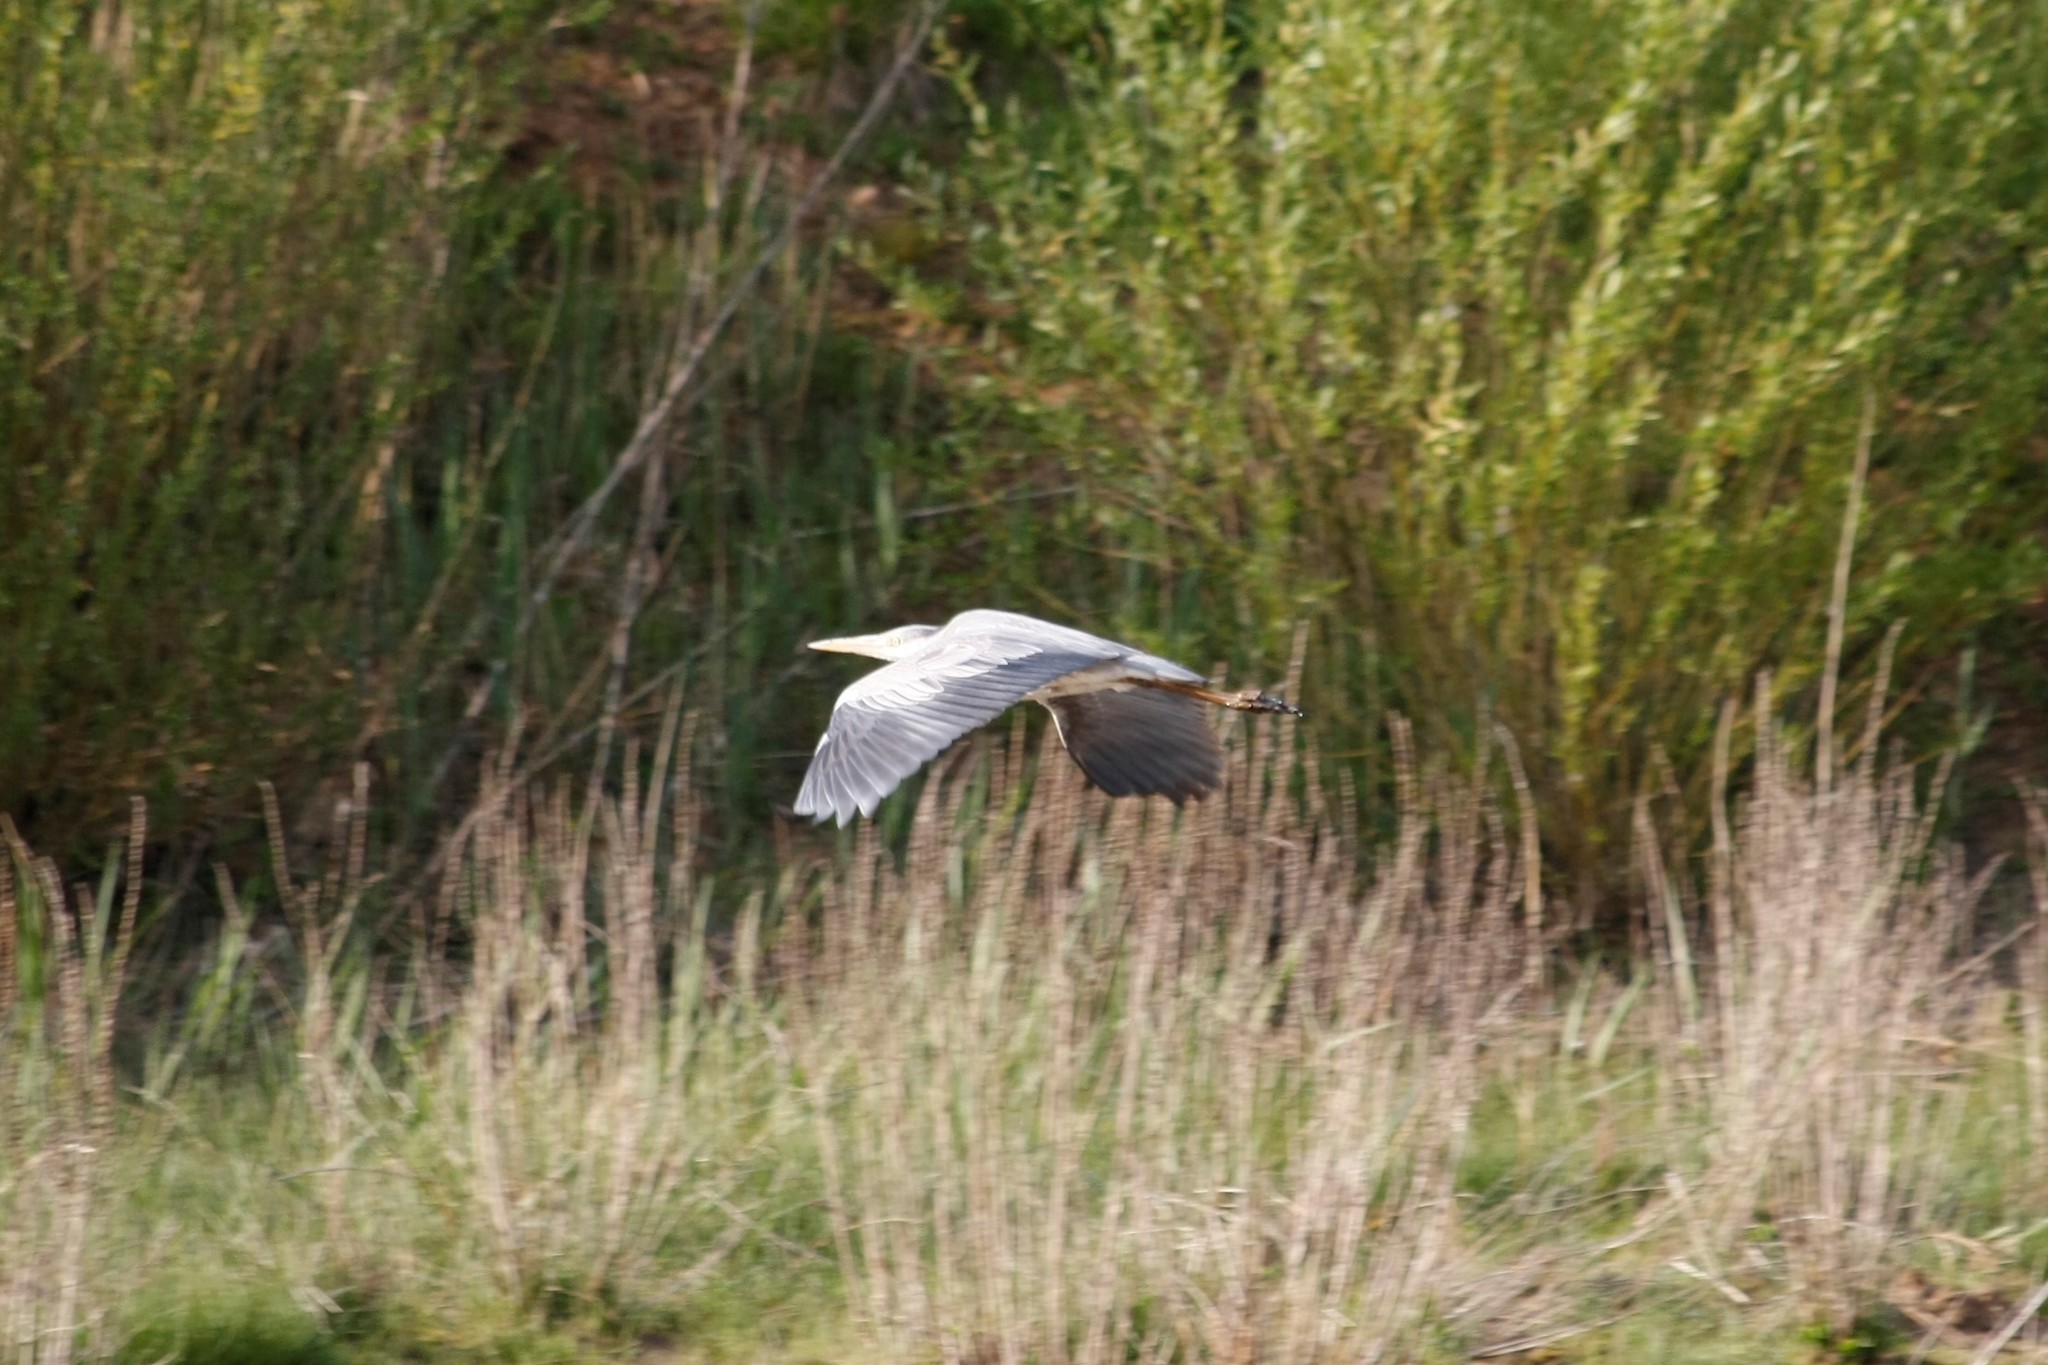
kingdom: Animalia
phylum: Chordata
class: Aves
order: Pelecaniformes
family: Ardeidae
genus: Ardea
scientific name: Ardea cinerea
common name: Grey heron
